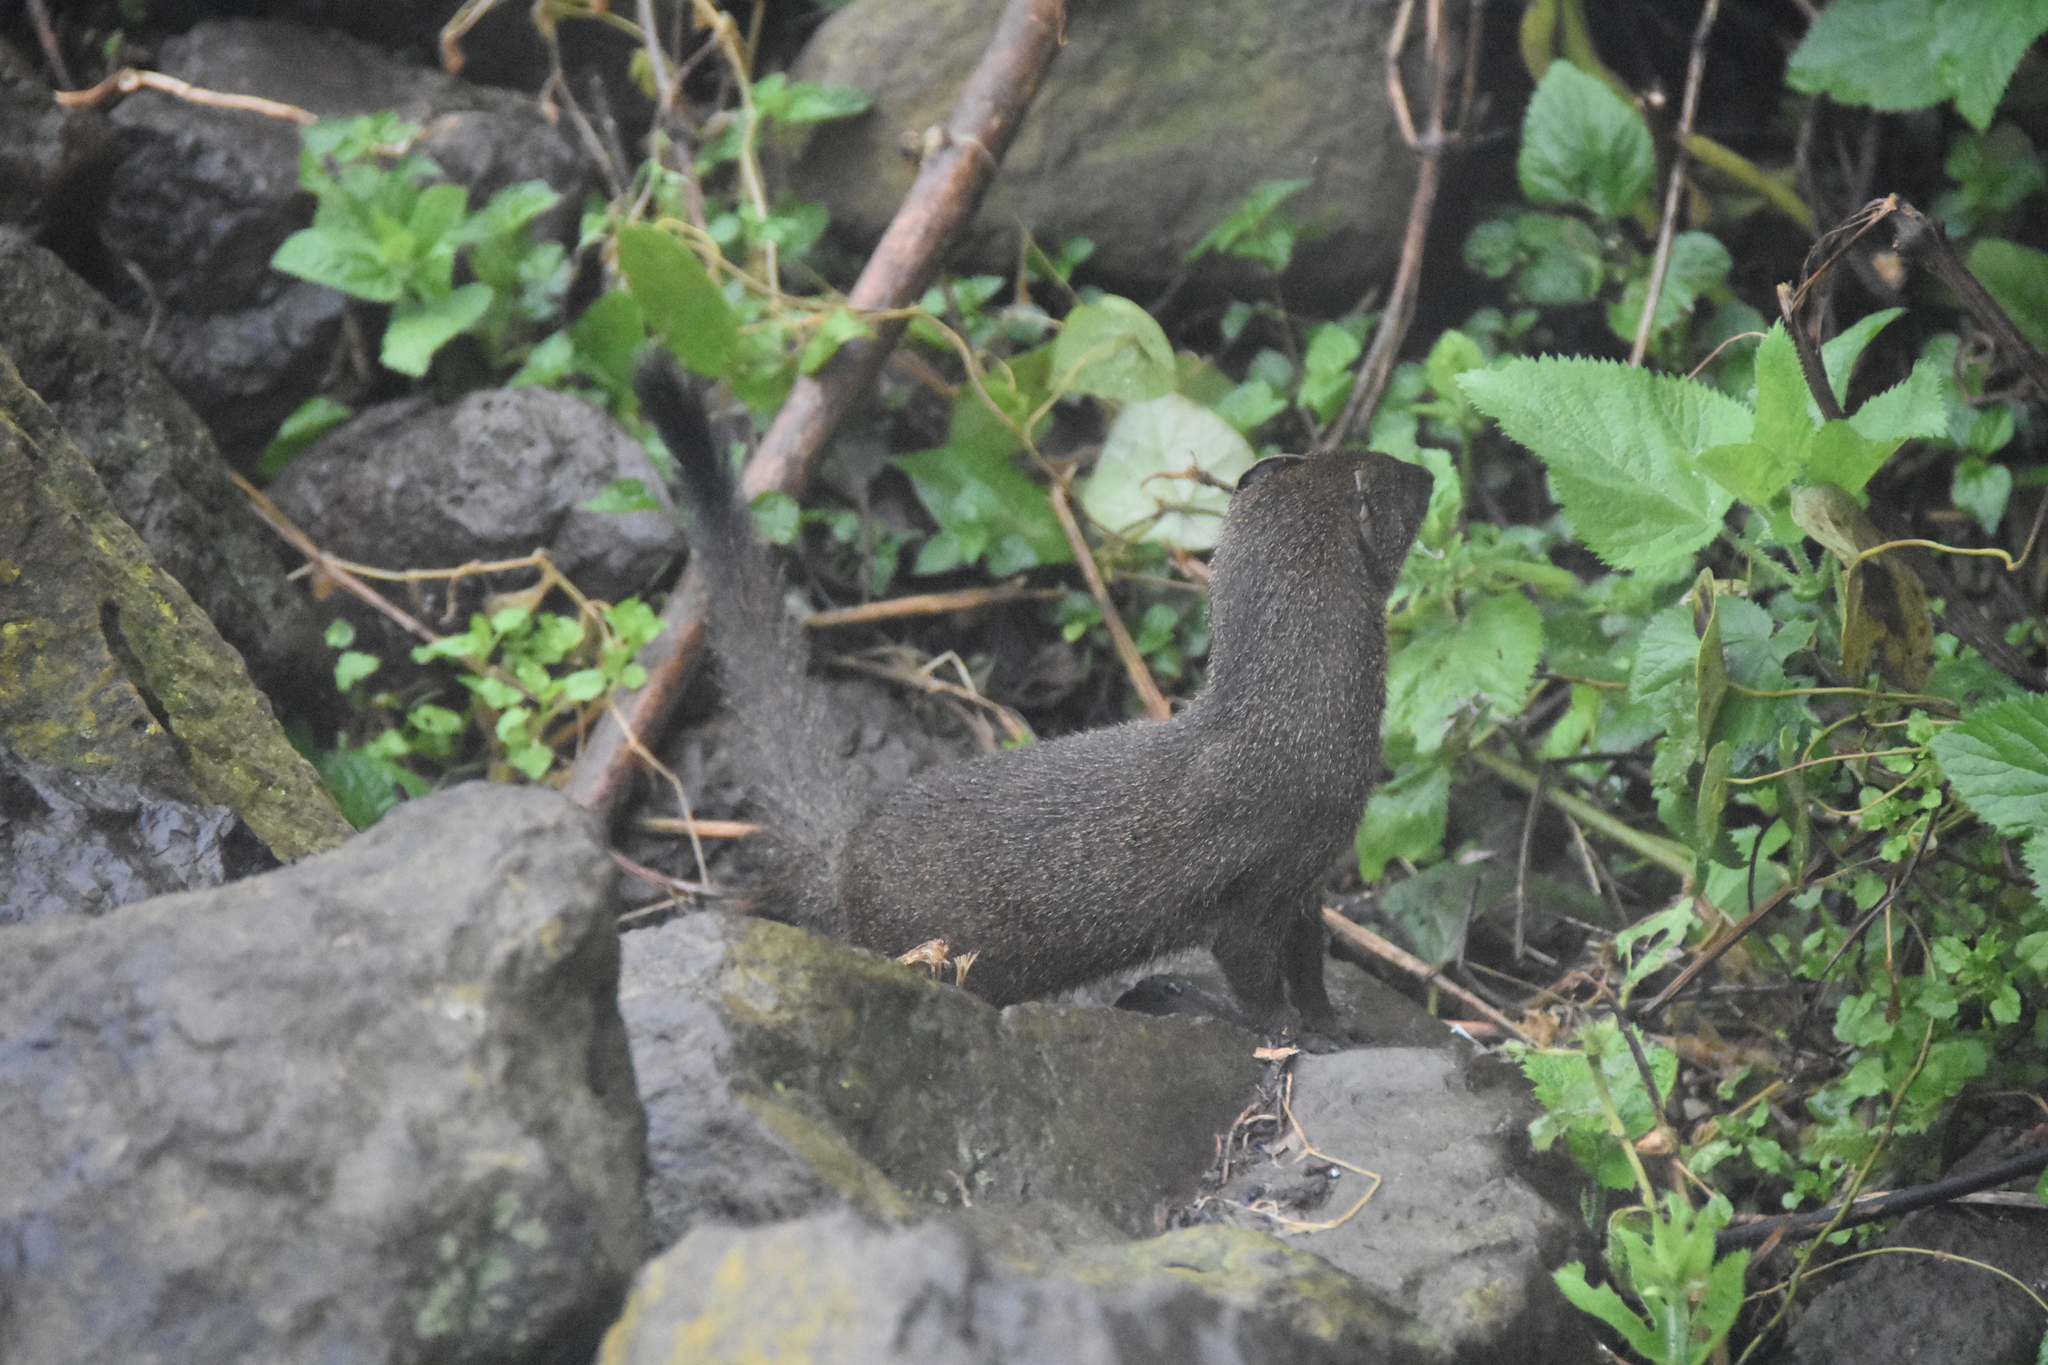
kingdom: Animalia
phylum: Chordata
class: Mammalia
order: Carnivora
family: Herpestidae
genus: Galerella
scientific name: Galerella sanguinea
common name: Slender mongoose
